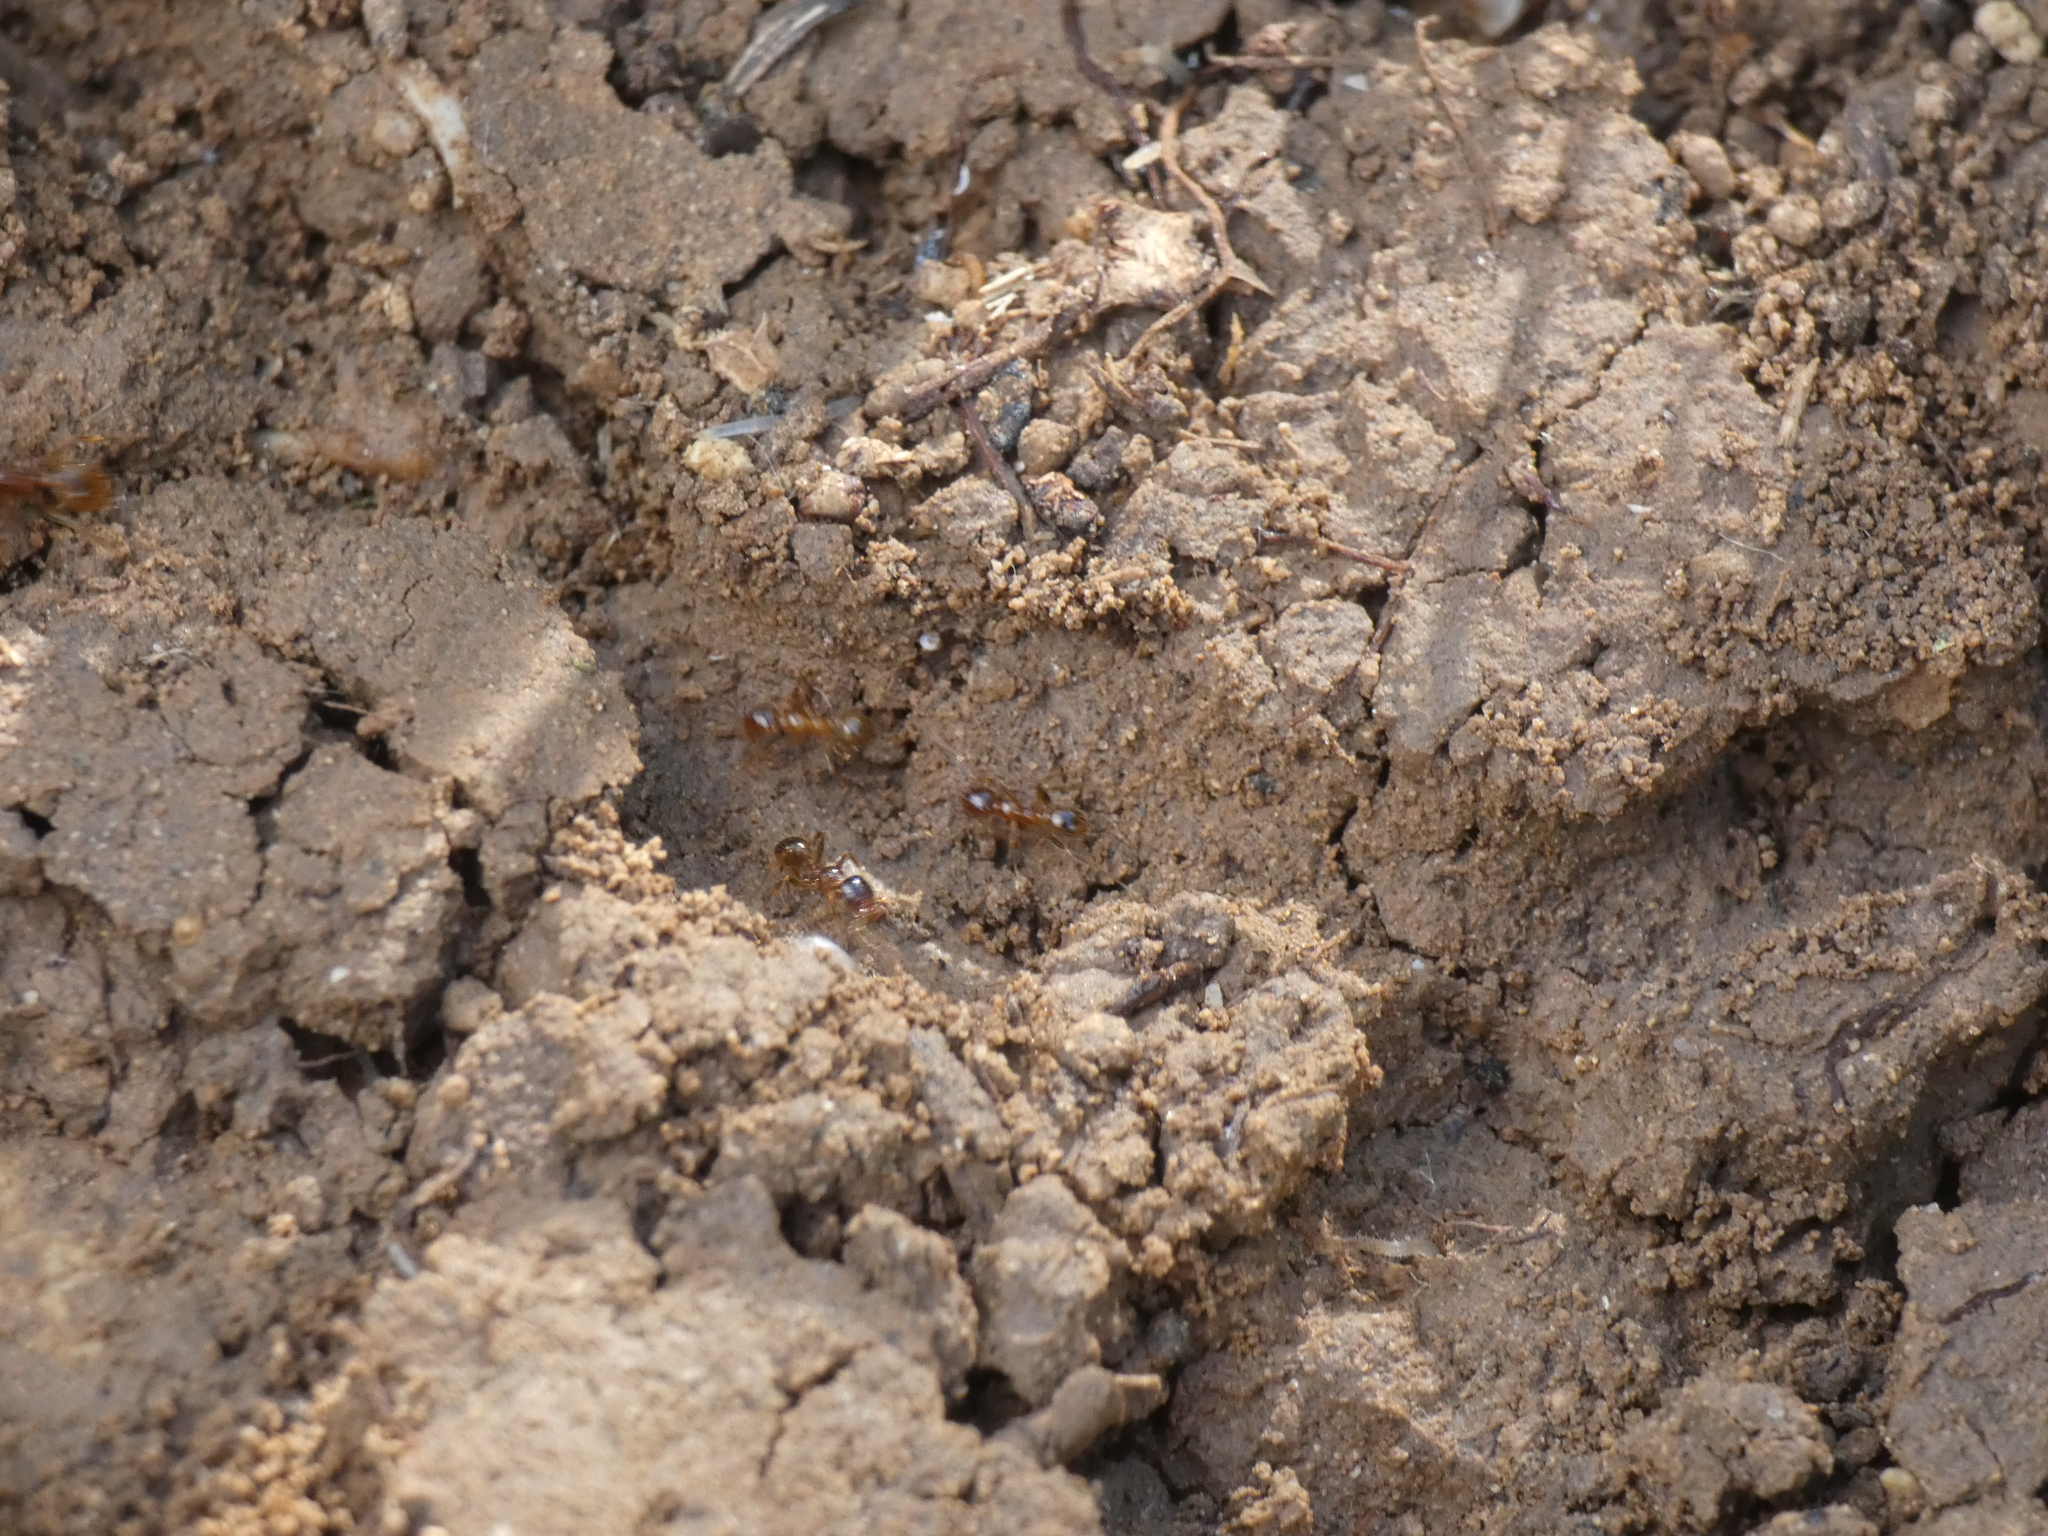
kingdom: Animalia
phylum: Arthropoda
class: Insecta
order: Hymenoptera
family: Formicidae
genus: Pheidole
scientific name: Pheidole pallidula
